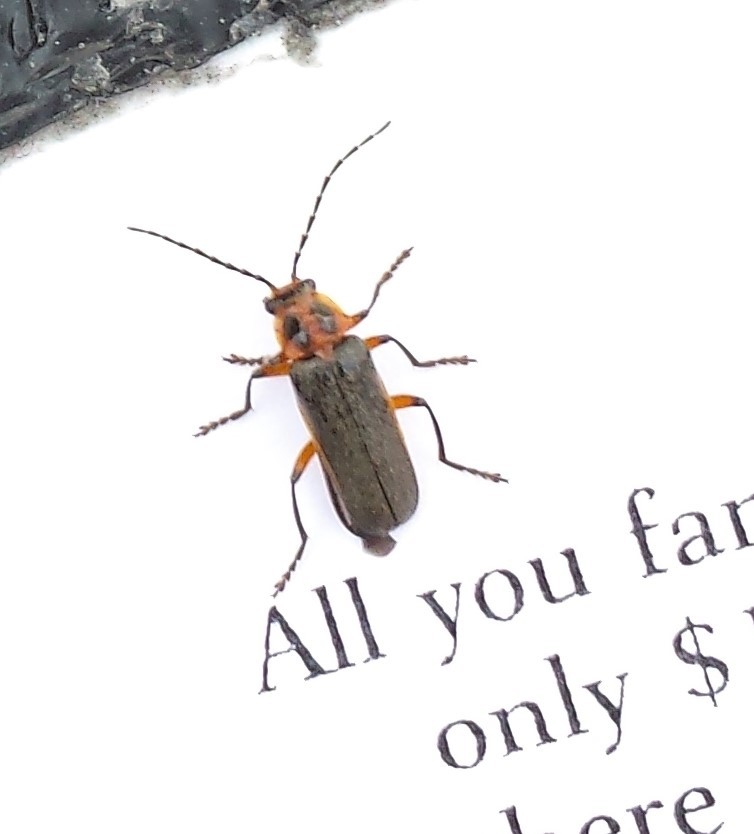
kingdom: Animalia
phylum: Arthropoda
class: Insecta
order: Coleoptera
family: Cantharidae
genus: Atalantycha
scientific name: Atalantycha bilineata
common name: Two-lined leatherwing
